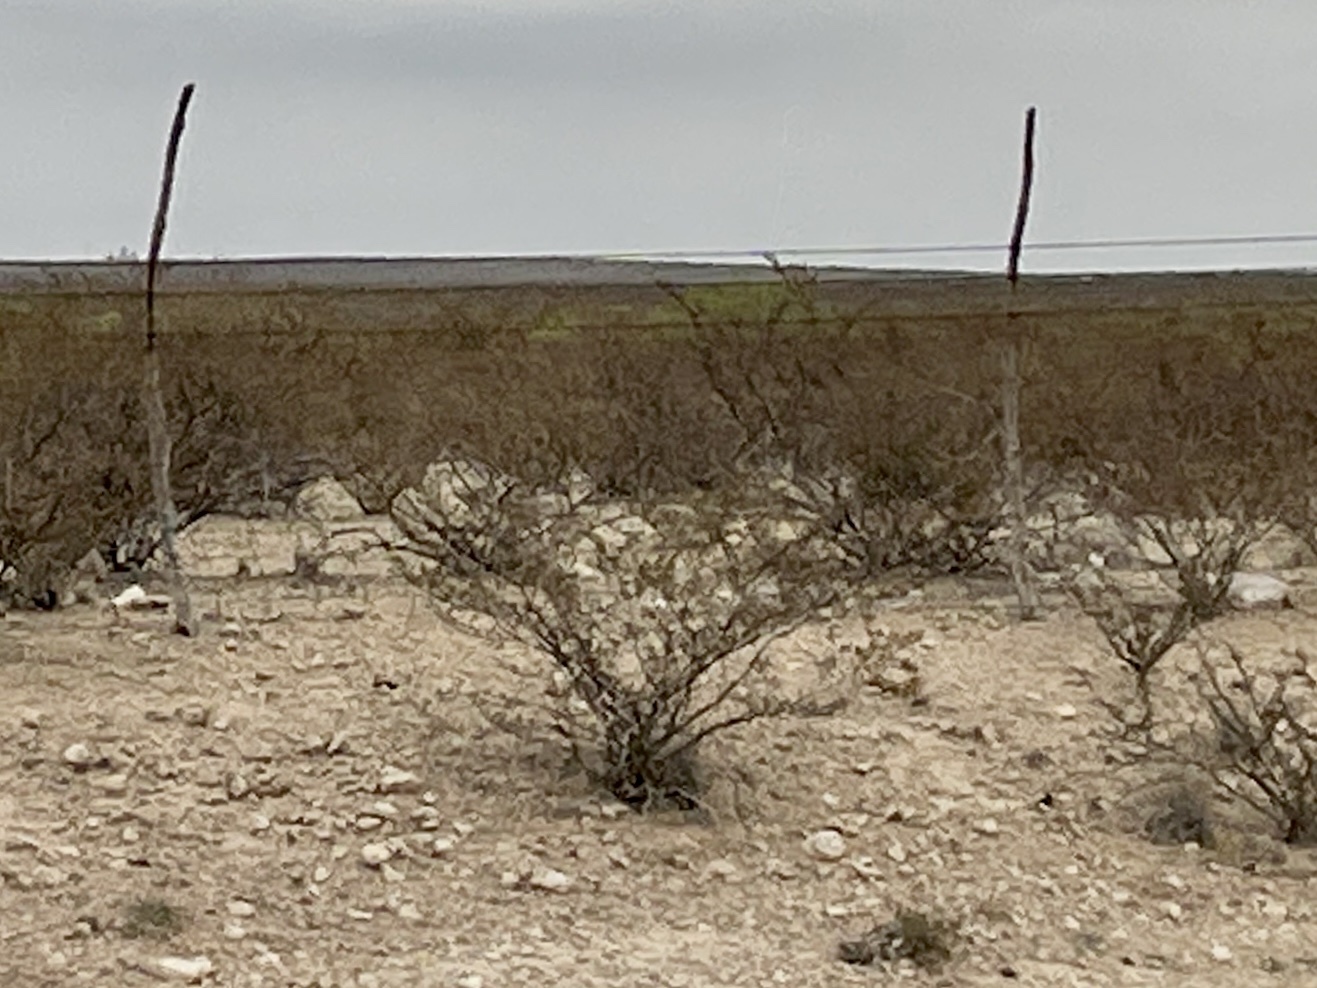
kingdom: Plantae
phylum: Tracheophyta
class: Magnoliopsida
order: Zygophyllales
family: Zygophyllaceae
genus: Larrea
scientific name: Larrea tridentata
